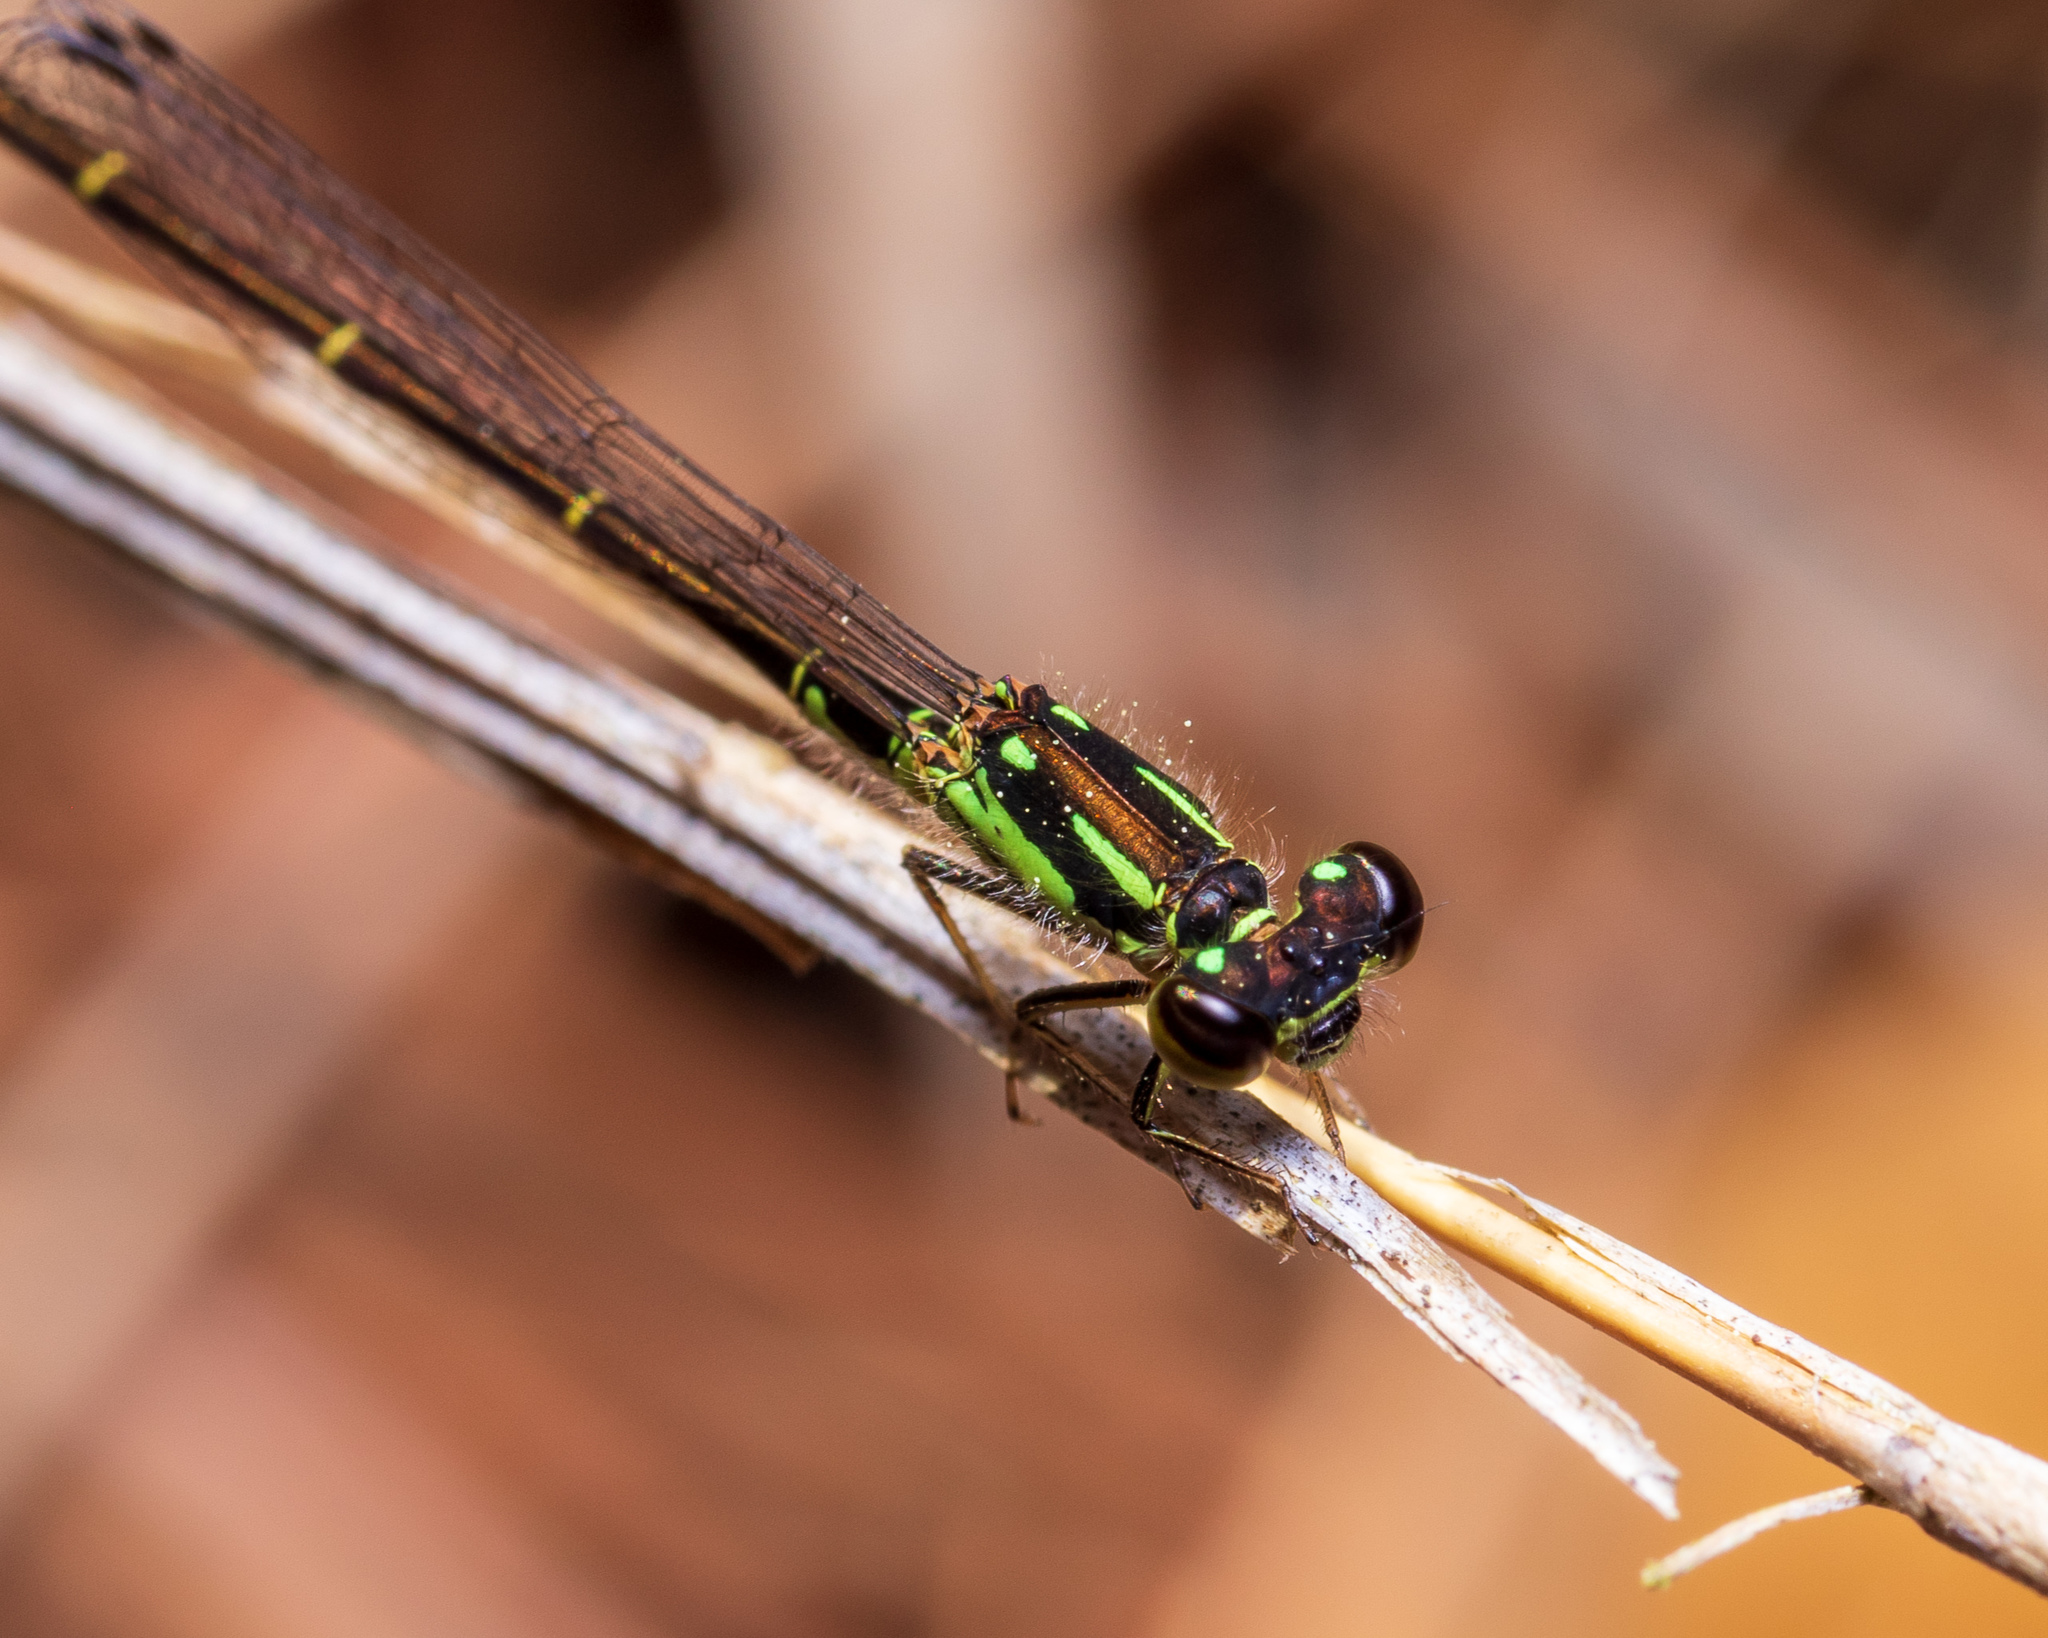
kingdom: Animalia
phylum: Arthropoda
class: Insecta
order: Odonata
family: Coenagrionidae
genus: Ischnura
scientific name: Ischnura posita
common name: Fragile forktail
